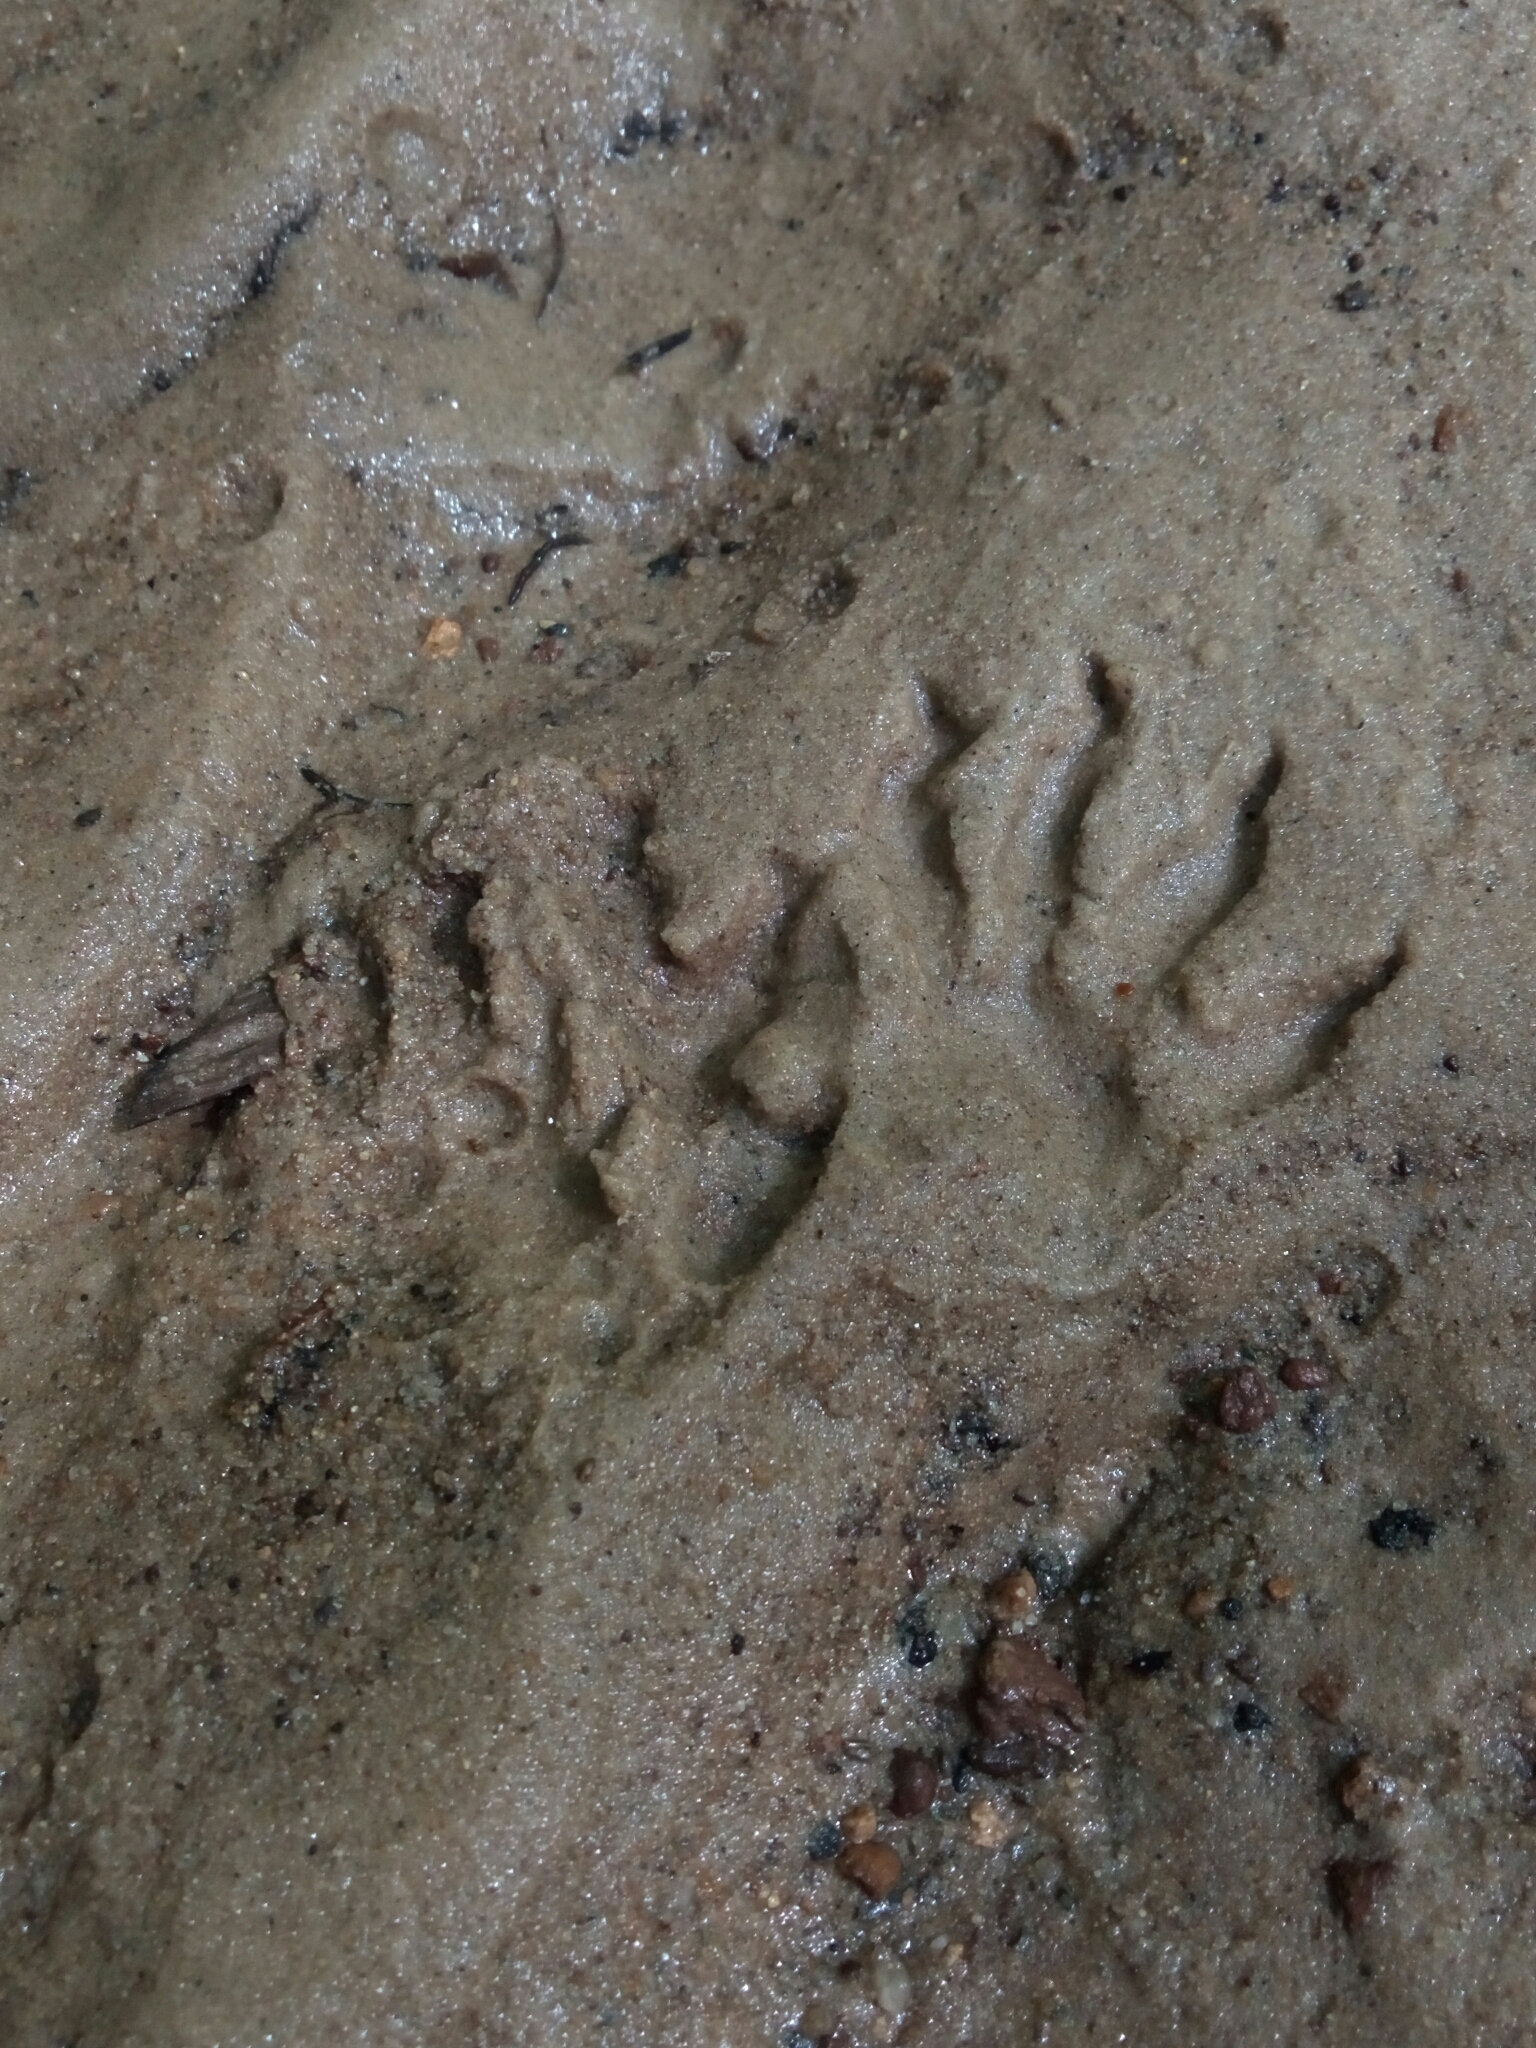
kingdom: Animalia
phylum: Chordata
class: Mammalia
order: Carnivora
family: Procyonidae
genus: Procyon
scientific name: Procyon lotor
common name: Raccoon
